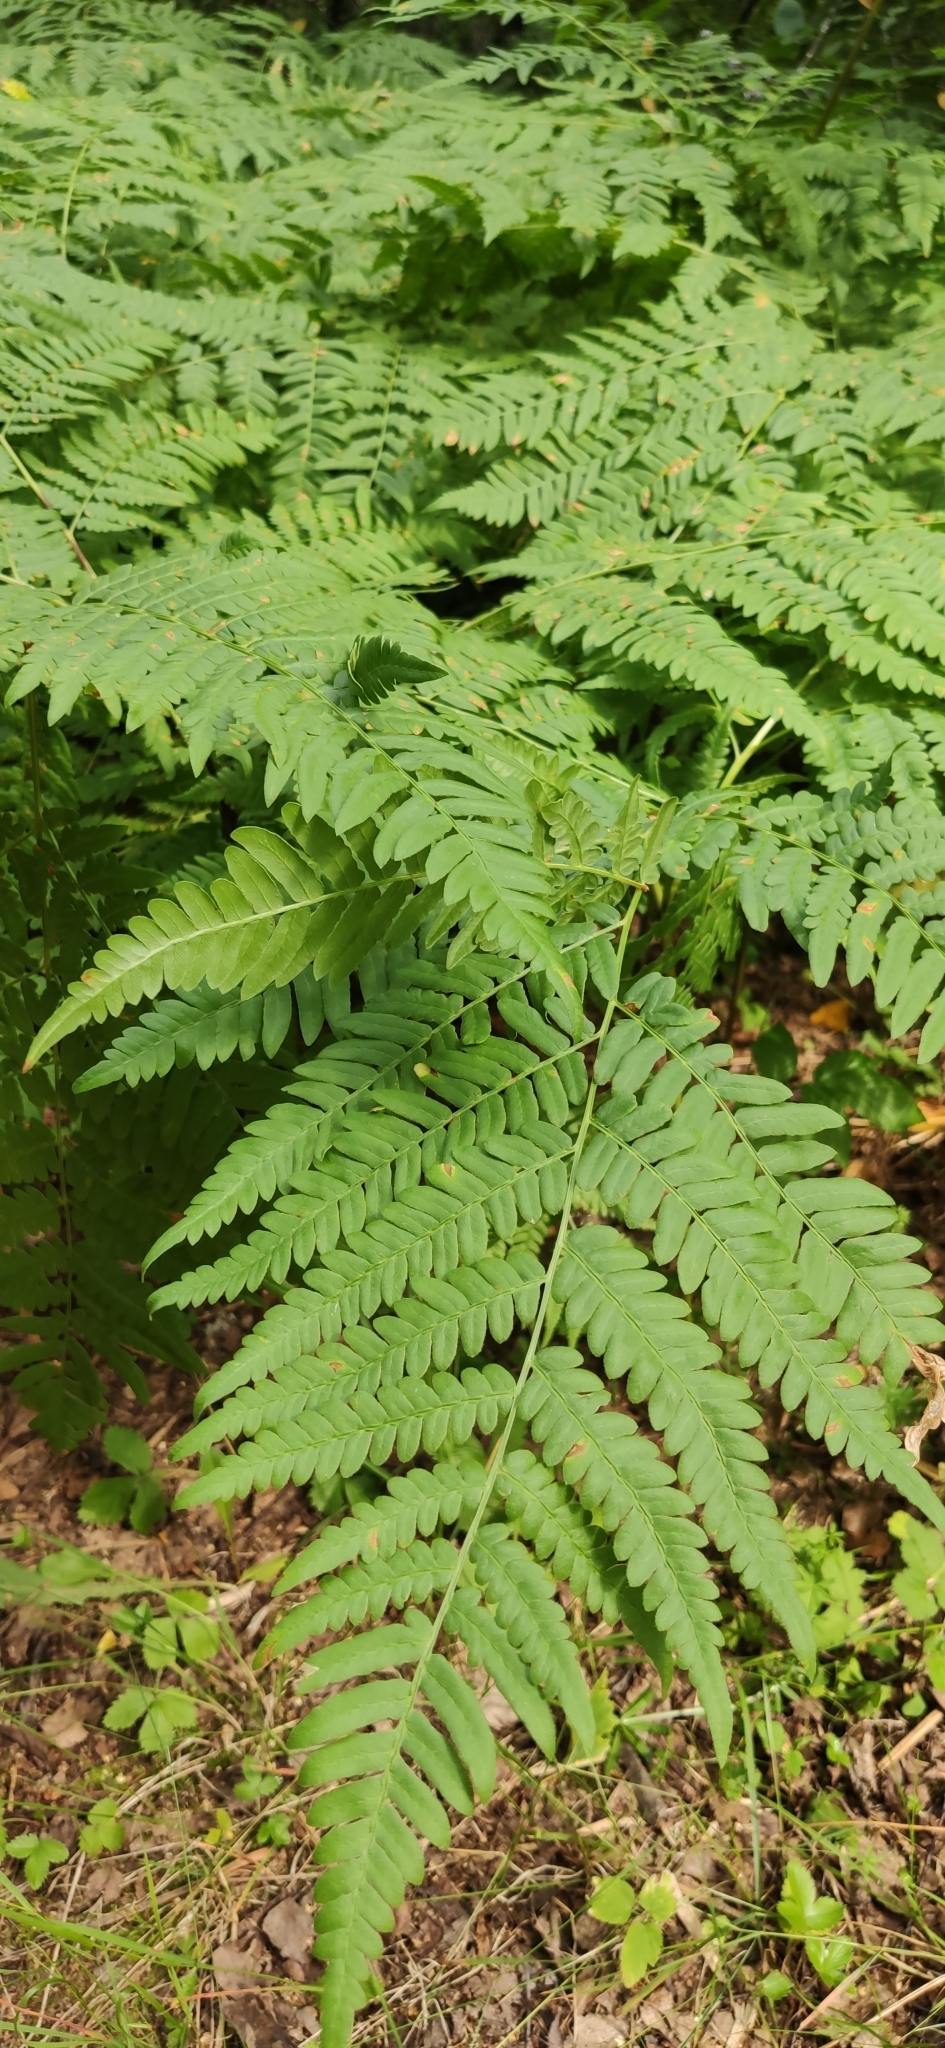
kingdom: Plantae
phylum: Tracheophyta
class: Polypodiopsida
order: Polypodiales
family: Dennstaedtiaceae
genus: Pteridium
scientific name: Pteridium aquilinum
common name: Bracken
